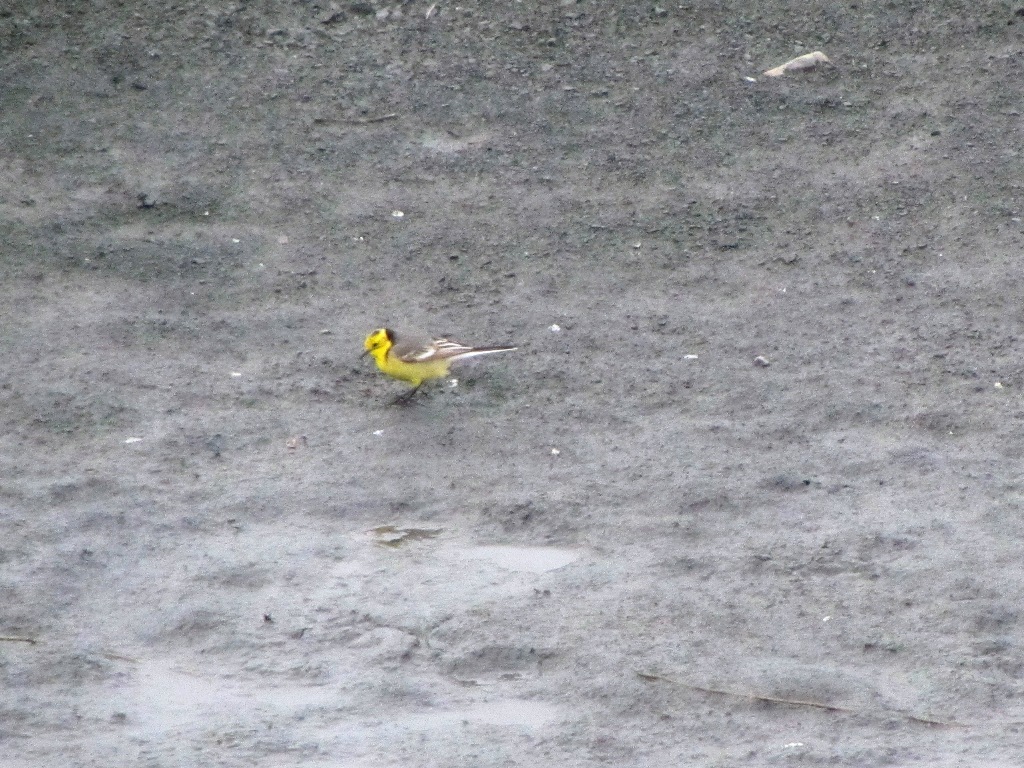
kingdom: Animalia
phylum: Chordata
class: Aves
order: Passeriformes
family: Motacillidae
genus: Motacilla
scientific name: Motacilla citreola
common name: Citrine wagtail
